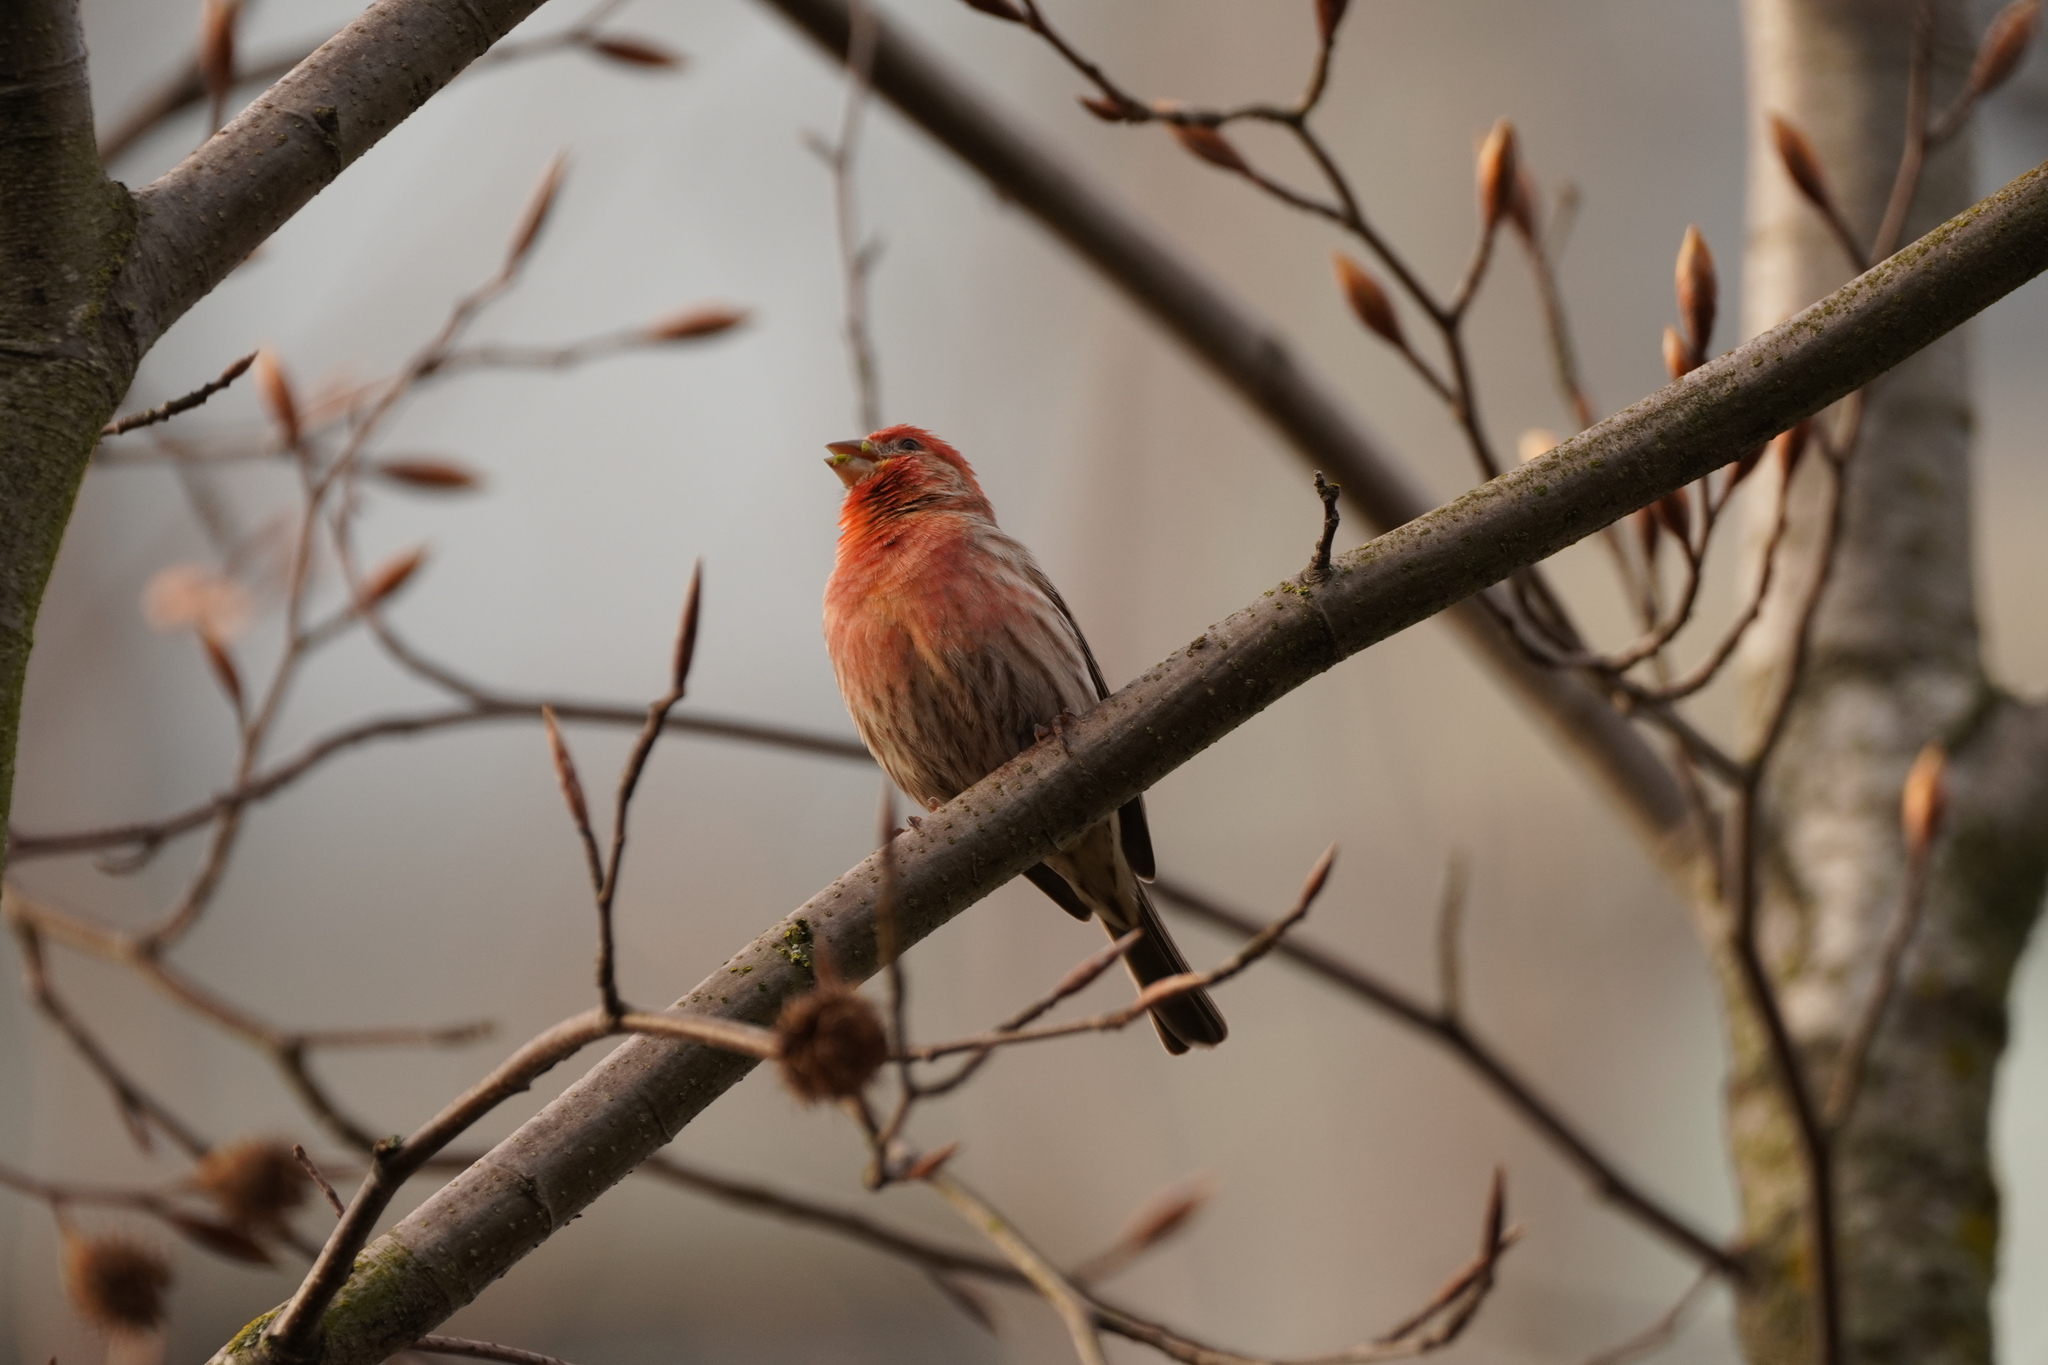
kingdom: Animalia
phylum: Chordata
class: Aves
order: Passeriformes
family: Fringillidae
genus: Haemorhous
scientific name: Haemorhous mexicanus
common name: House finch
